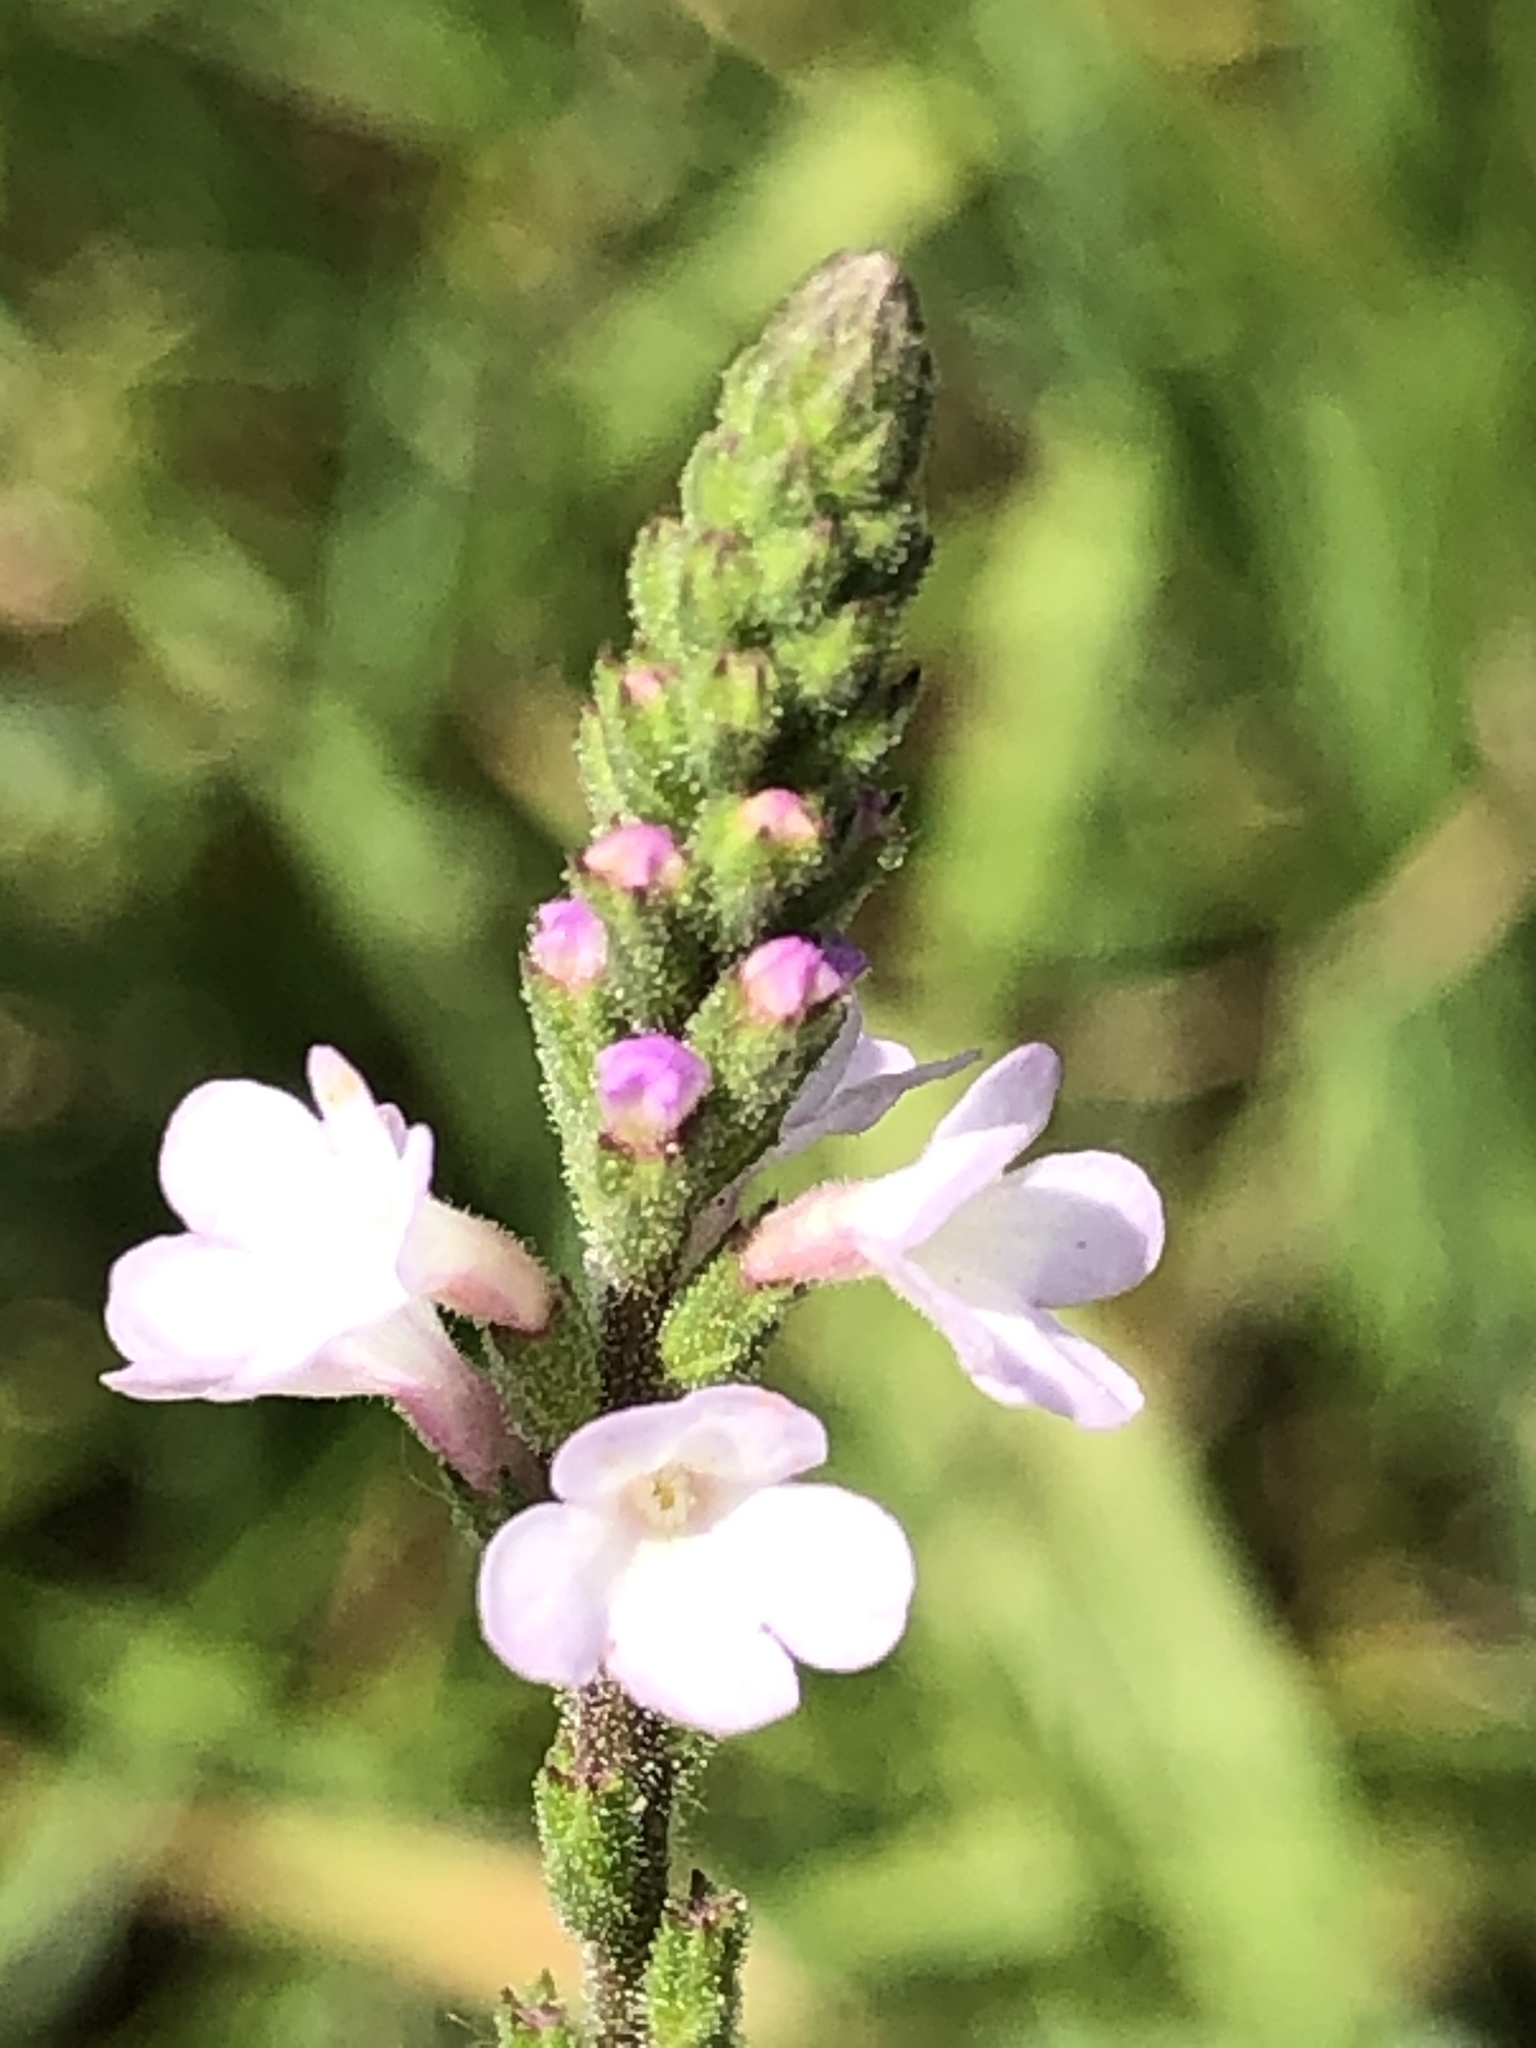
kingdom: Plantae
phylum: Tracheophyta
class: Magnoliopsida
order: Lamiales
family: Verbenaceae
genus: Verbena
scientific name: Verbena officinalis
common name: Vervain
